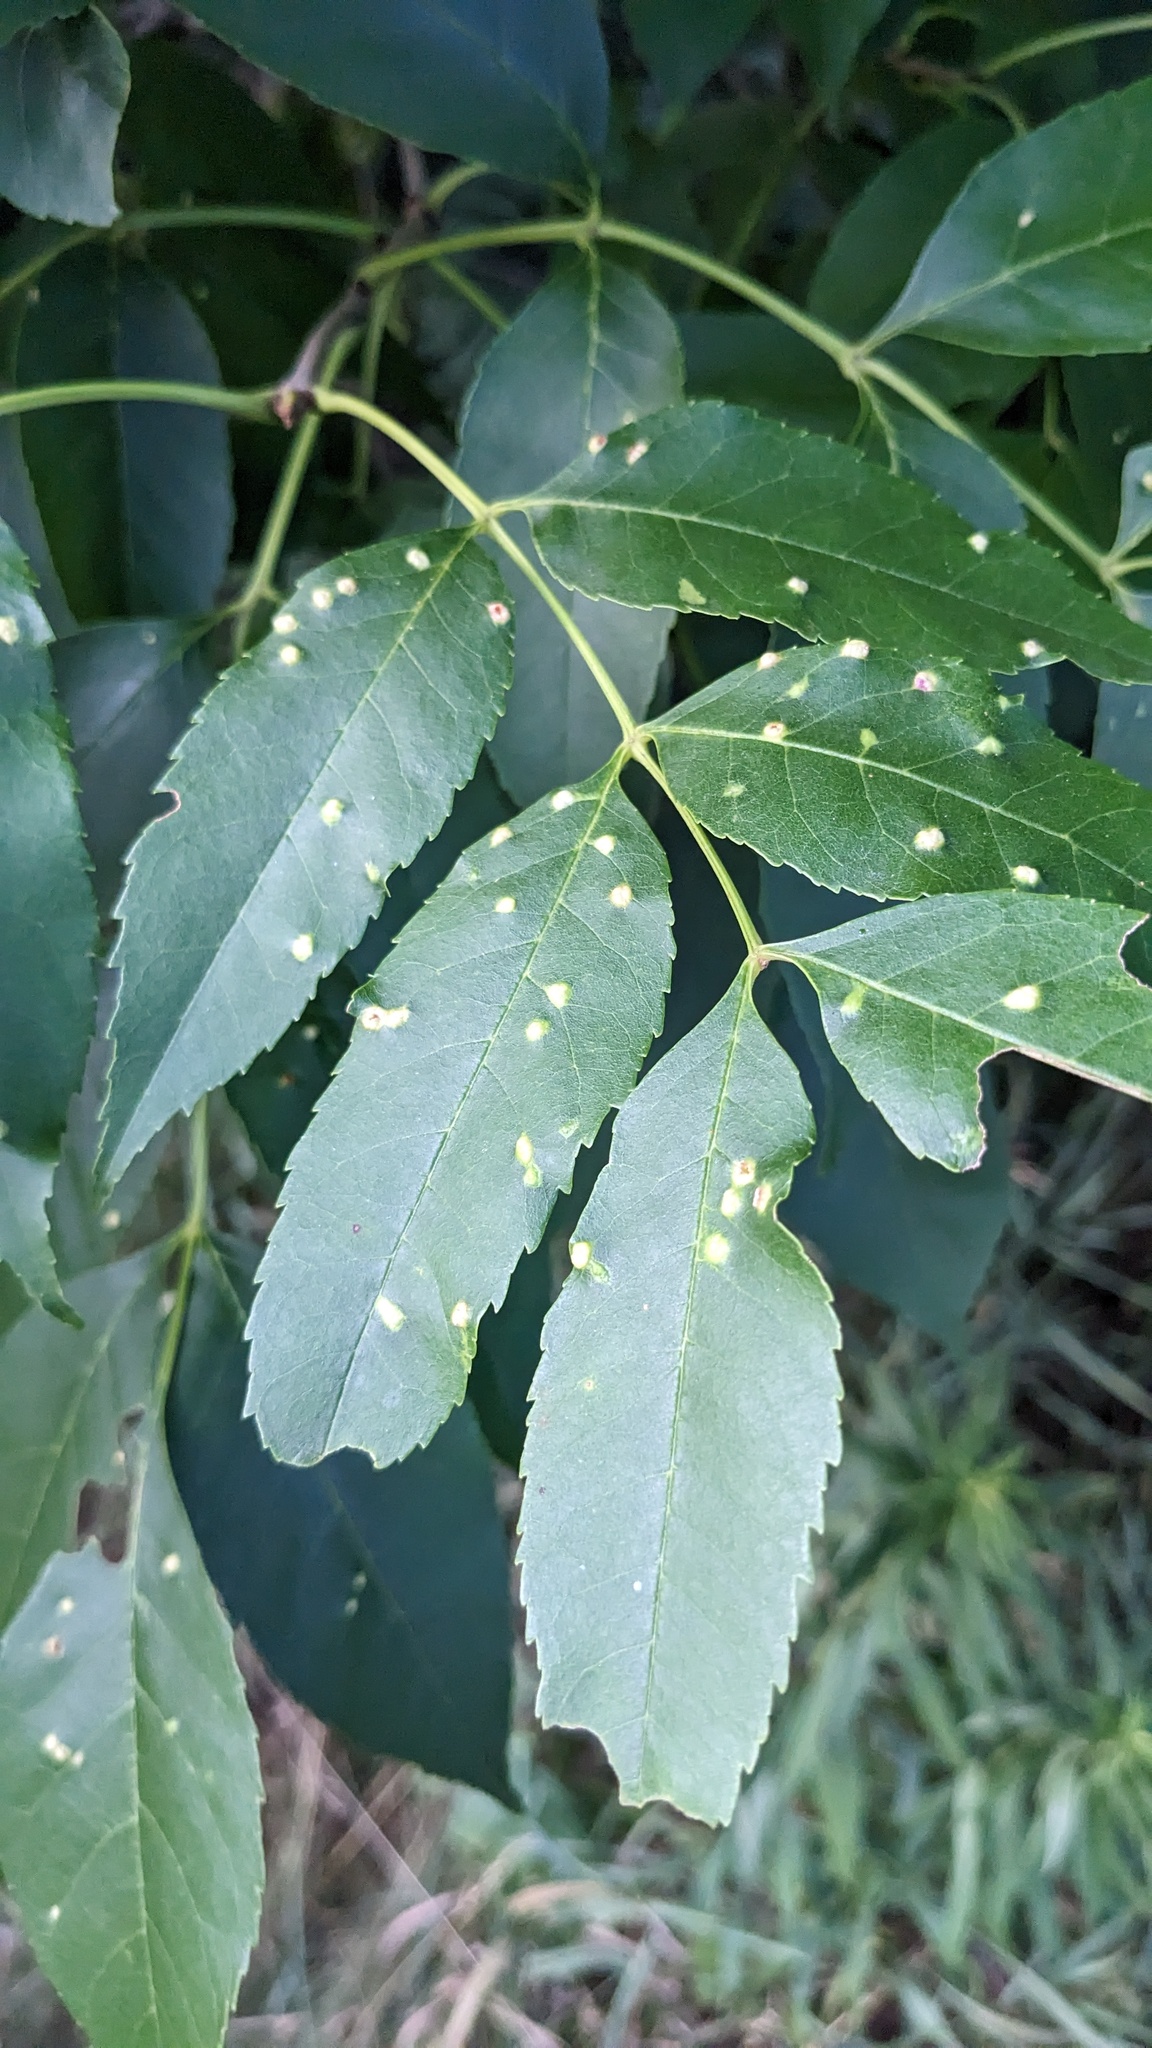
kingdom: Animalia
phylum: Arthropoda
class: Arachnida
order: Trombidiformes
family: Eriophyidae
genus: Aceria
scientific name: Aceria fraxinicola
